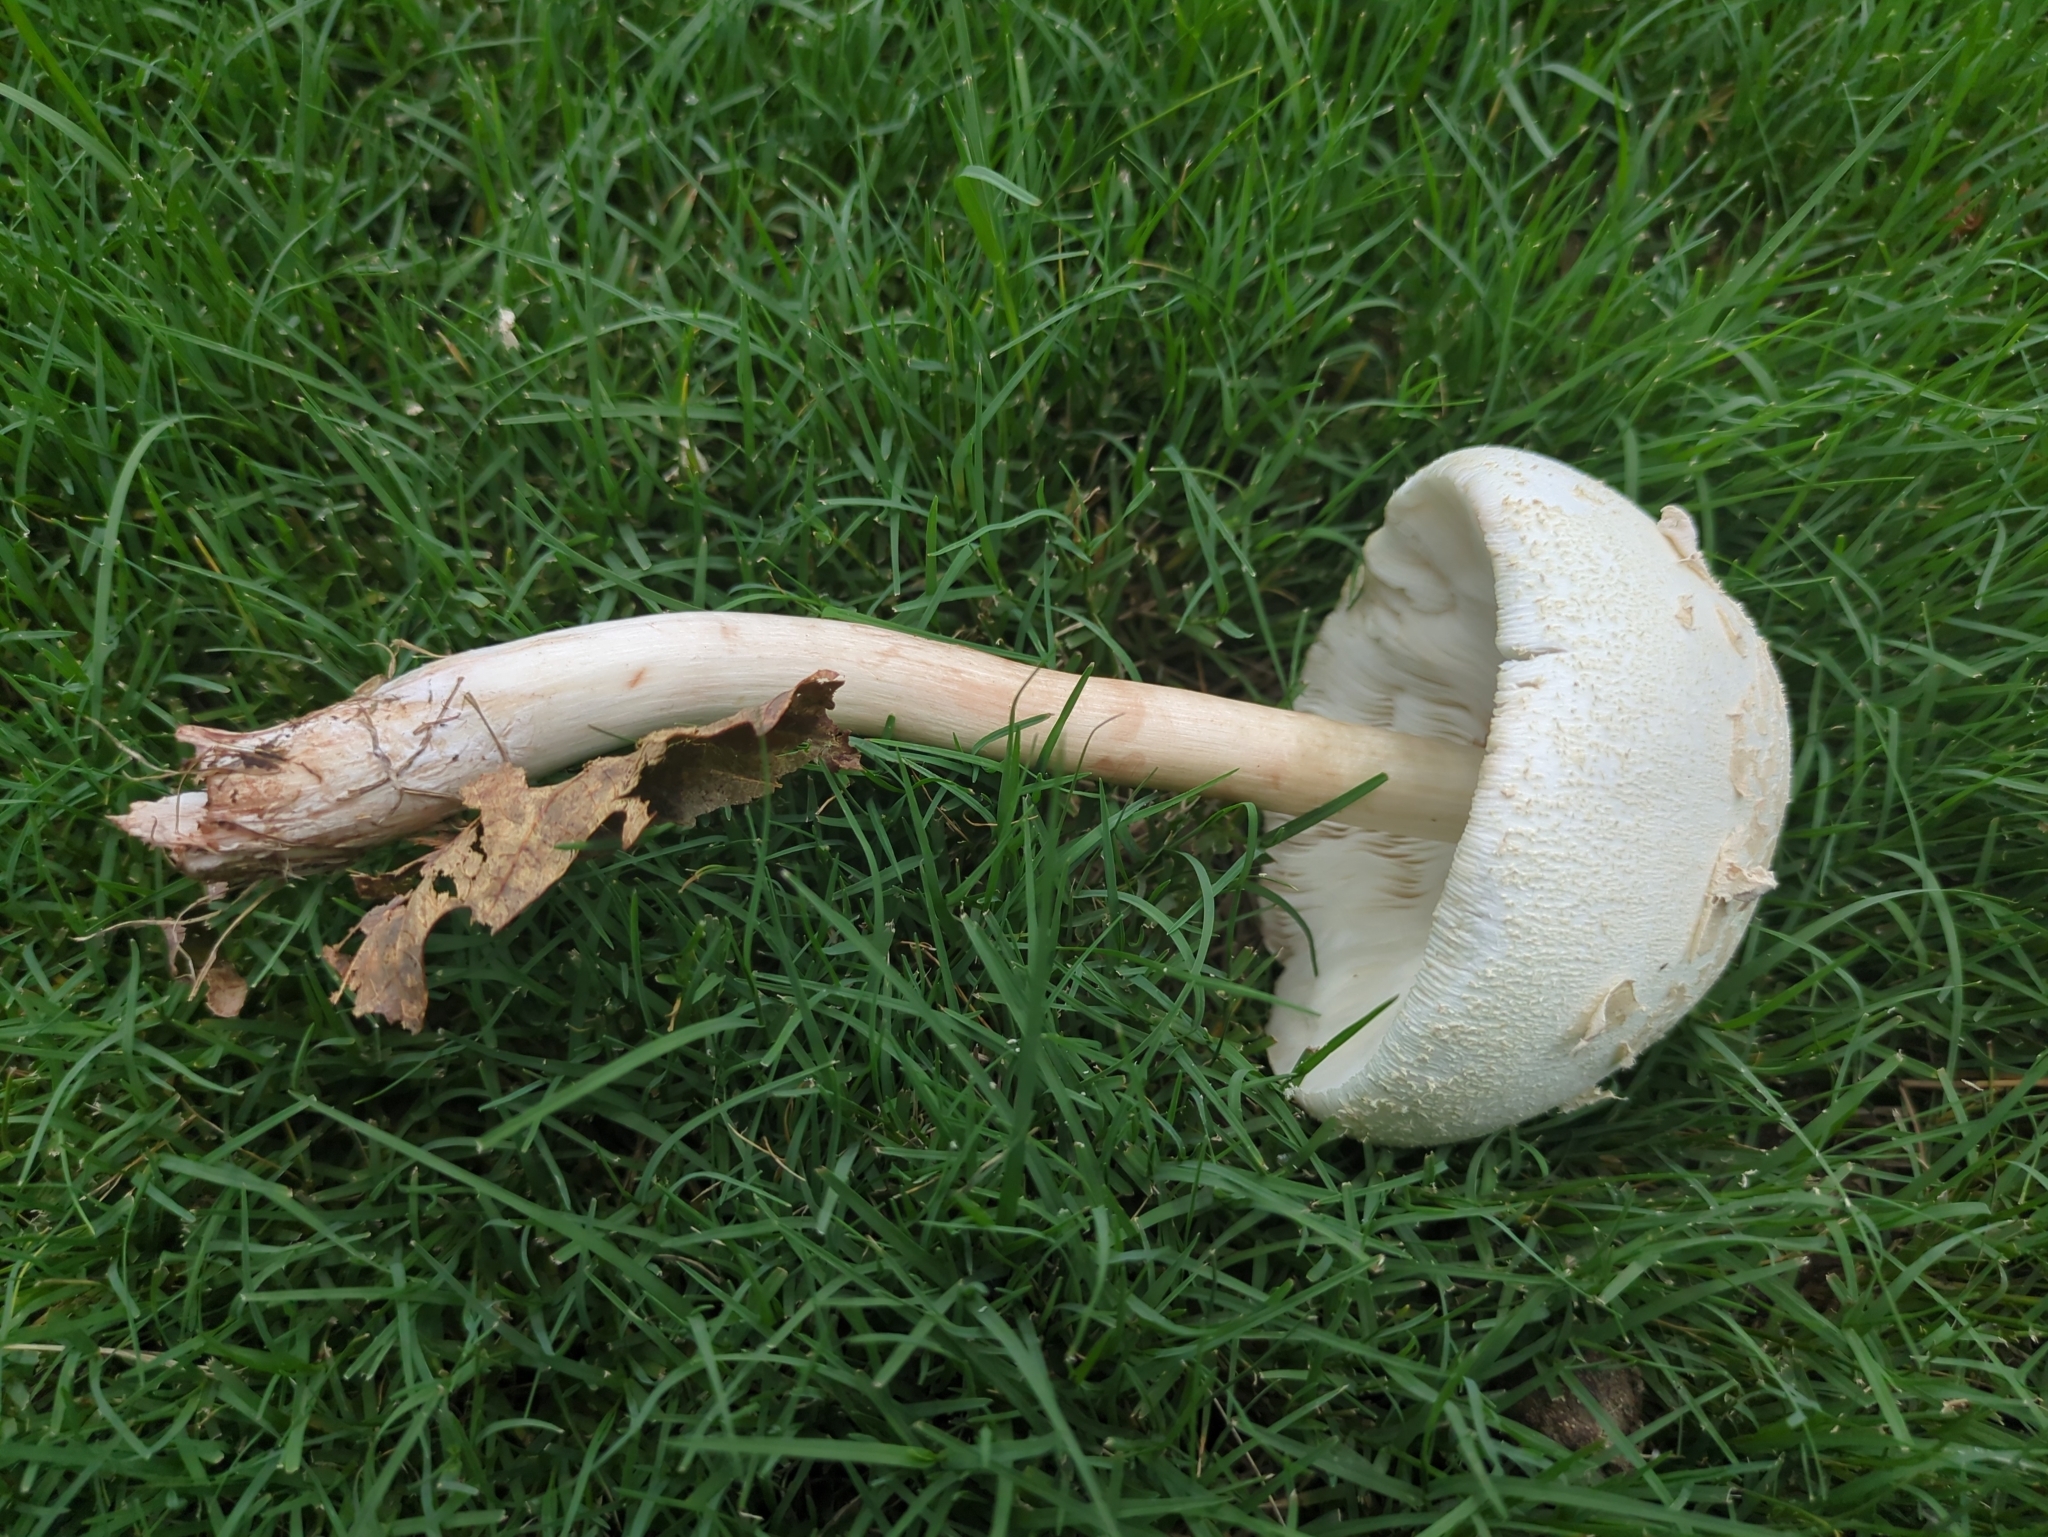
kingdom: Fungi
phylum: Basidiomycota
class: Agaricomycetes
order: Agaricales
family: Agaricaceae
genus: Chlorophyllum
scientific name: Chlorophyllum molybdites
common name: False parasol
